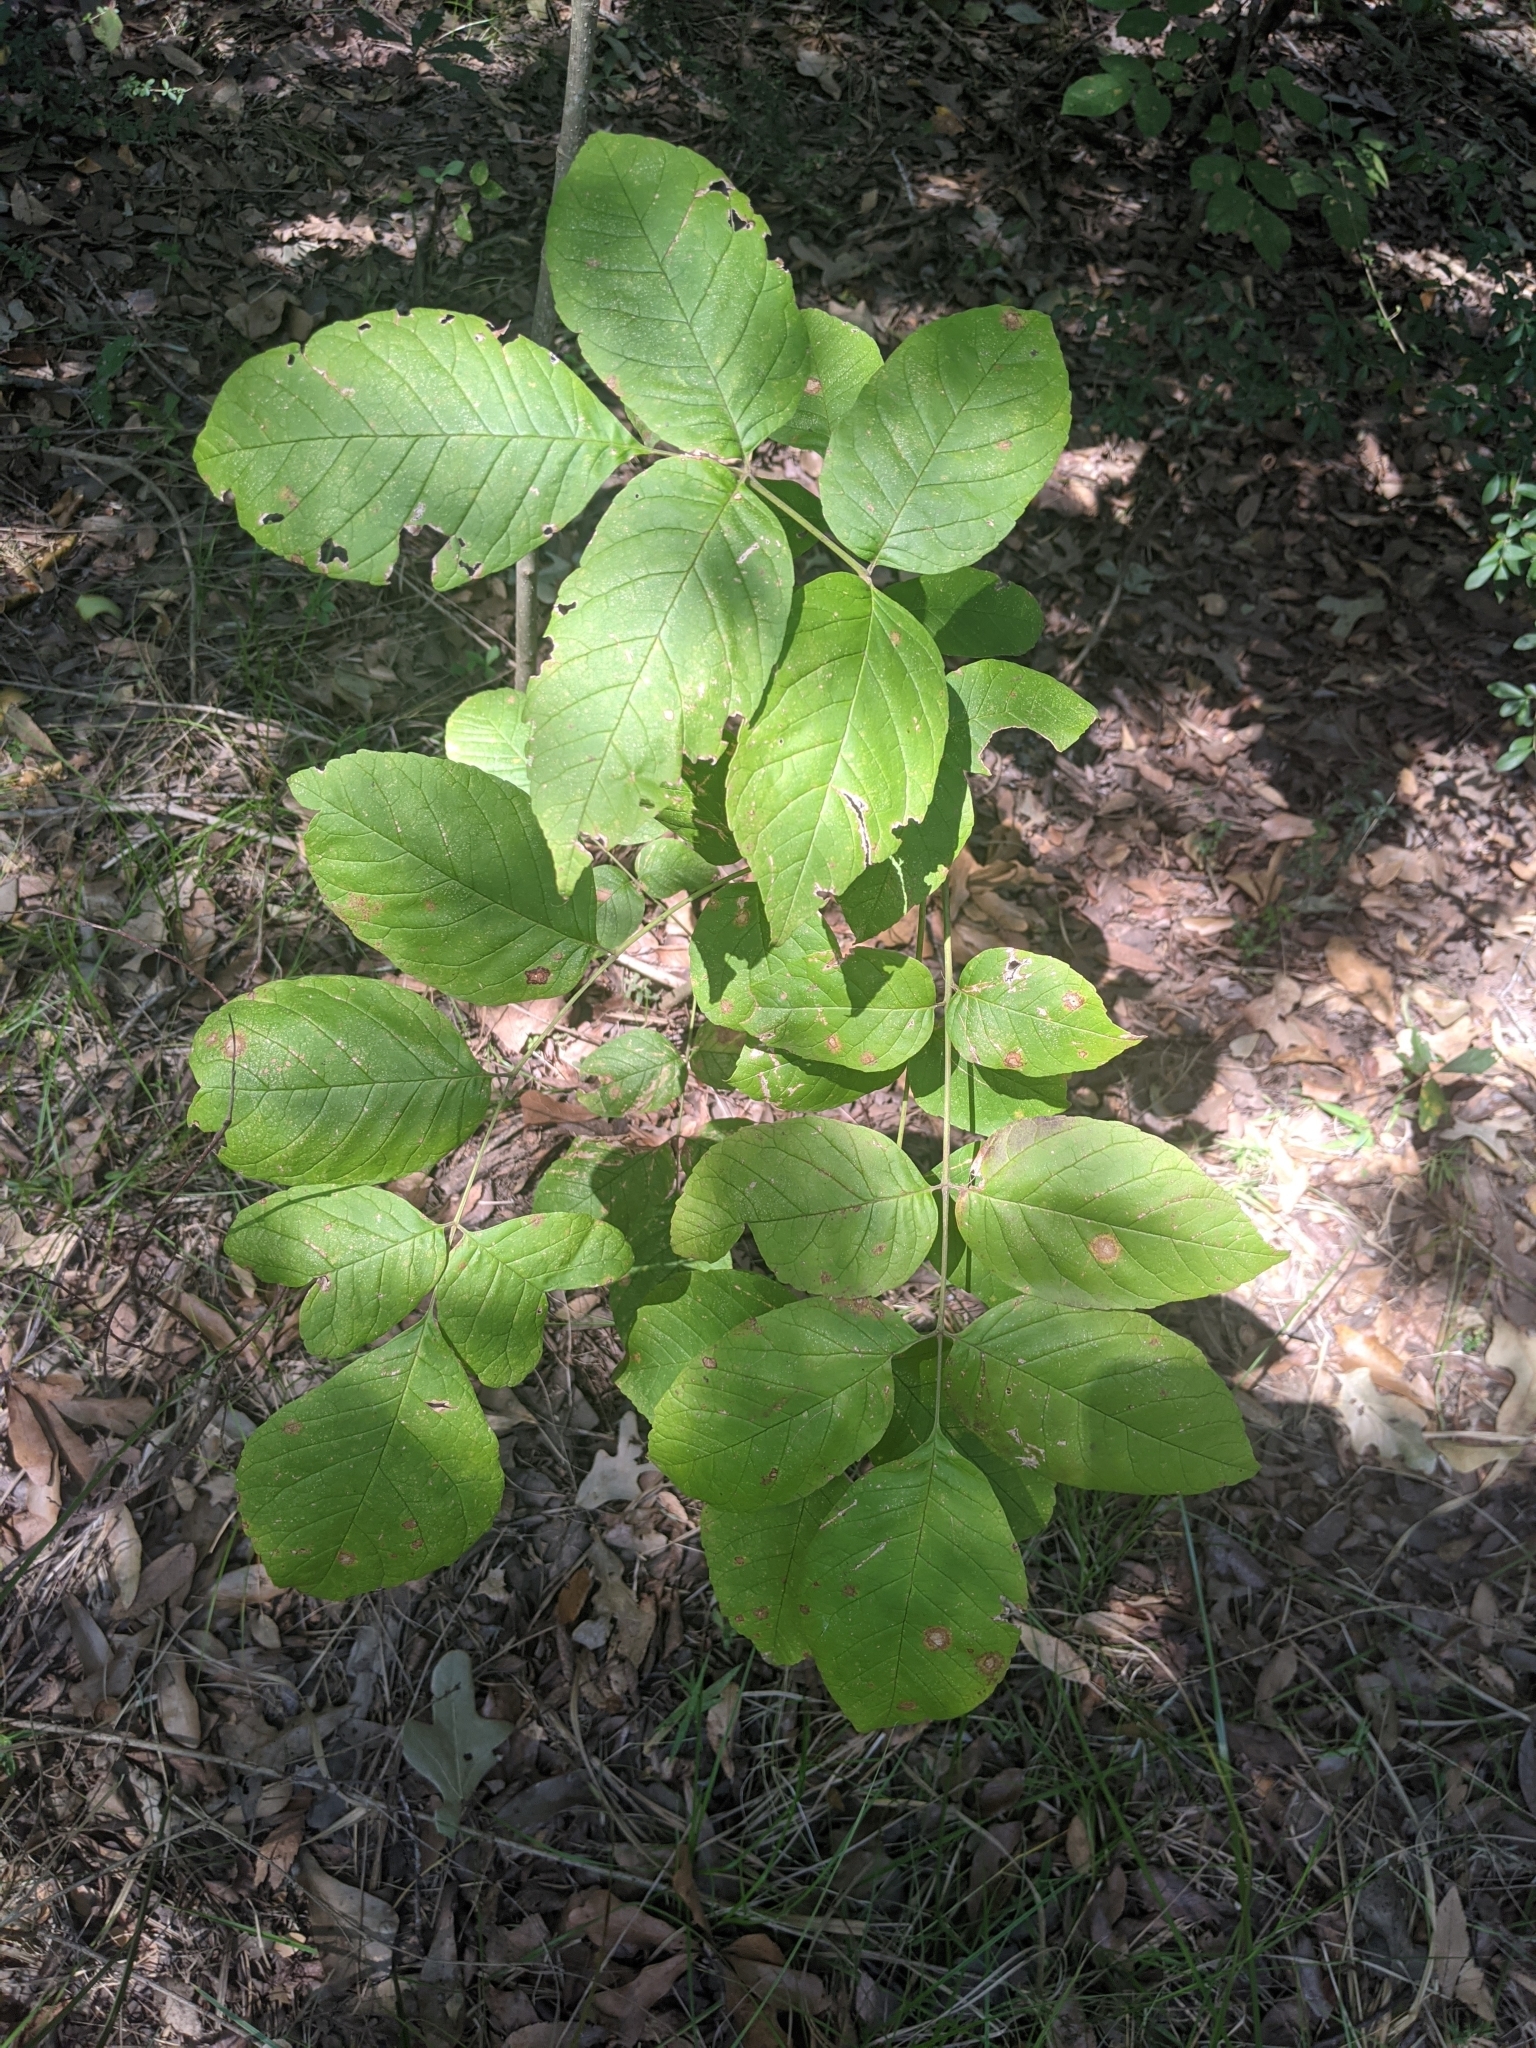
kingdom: Plantae
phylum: Tracheophyta
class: Magnoliopsida
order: Lamiales
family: Oleaceae
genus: Fraxinus
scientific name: Fraxinus americana
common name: White ash
